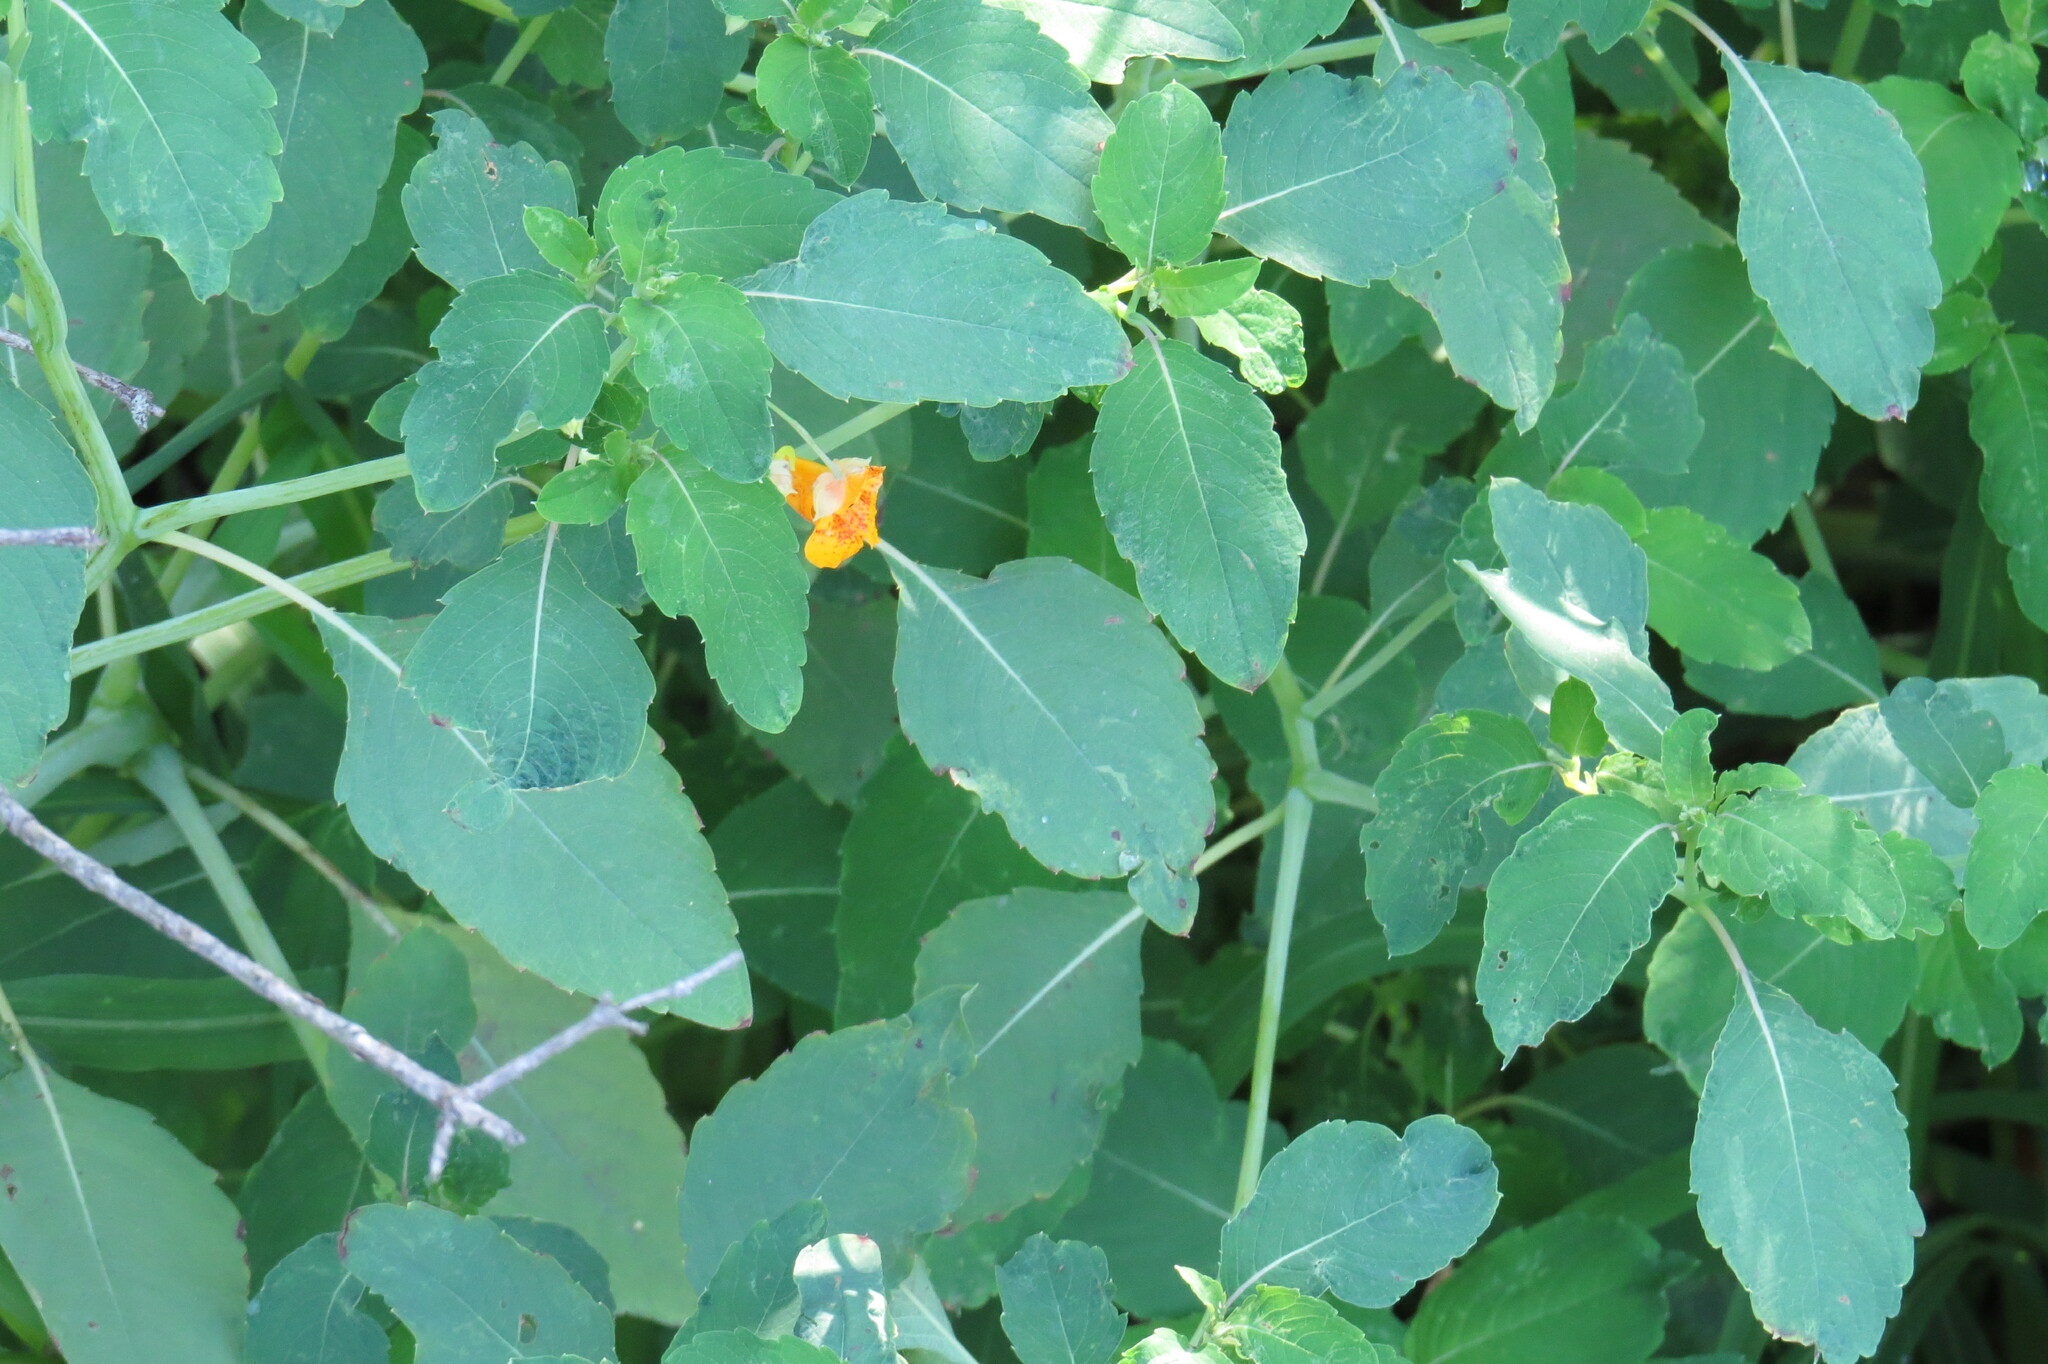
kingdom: Plantae
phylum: Tracheophyta
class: Magnoliopsida
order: Ericales
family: Balsaminaceae
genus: Impatiens
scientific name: Impatiens capensis
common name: Orange balsam
